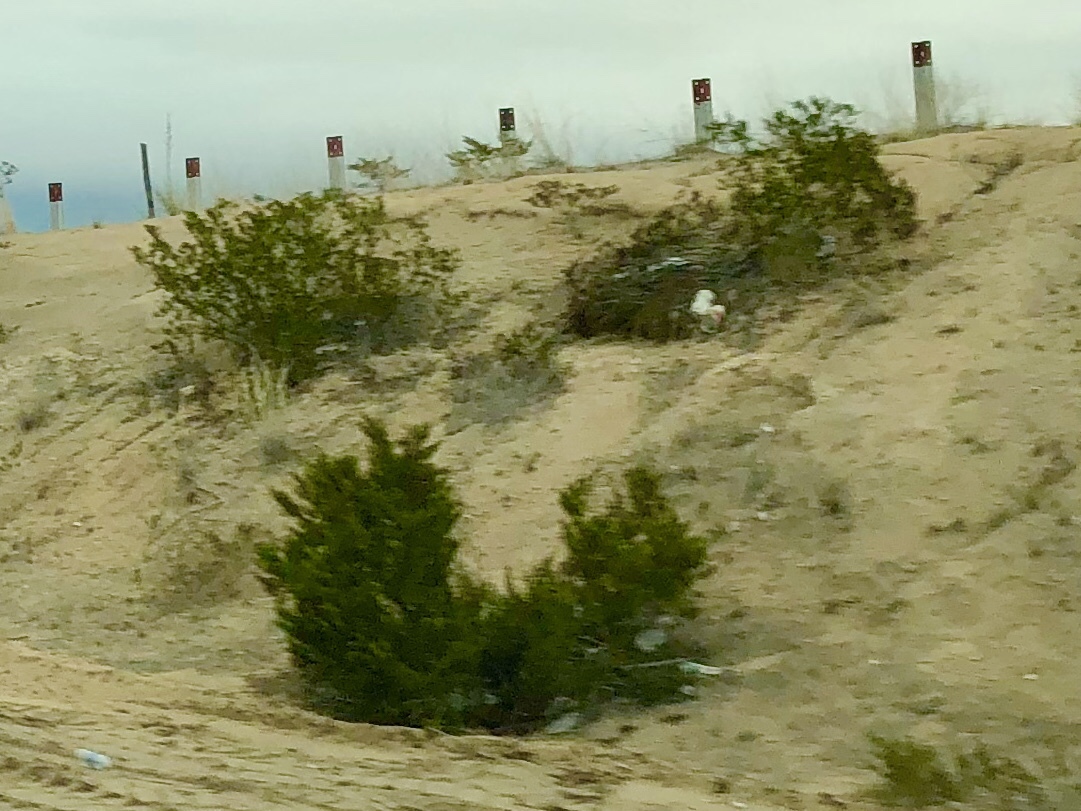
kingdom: Plantae
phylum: Tracheophyta
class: Magnoliopsida
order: Zygophyllales
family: Zygophyllaceae
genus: Larrea
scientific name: Larrea tridentata
